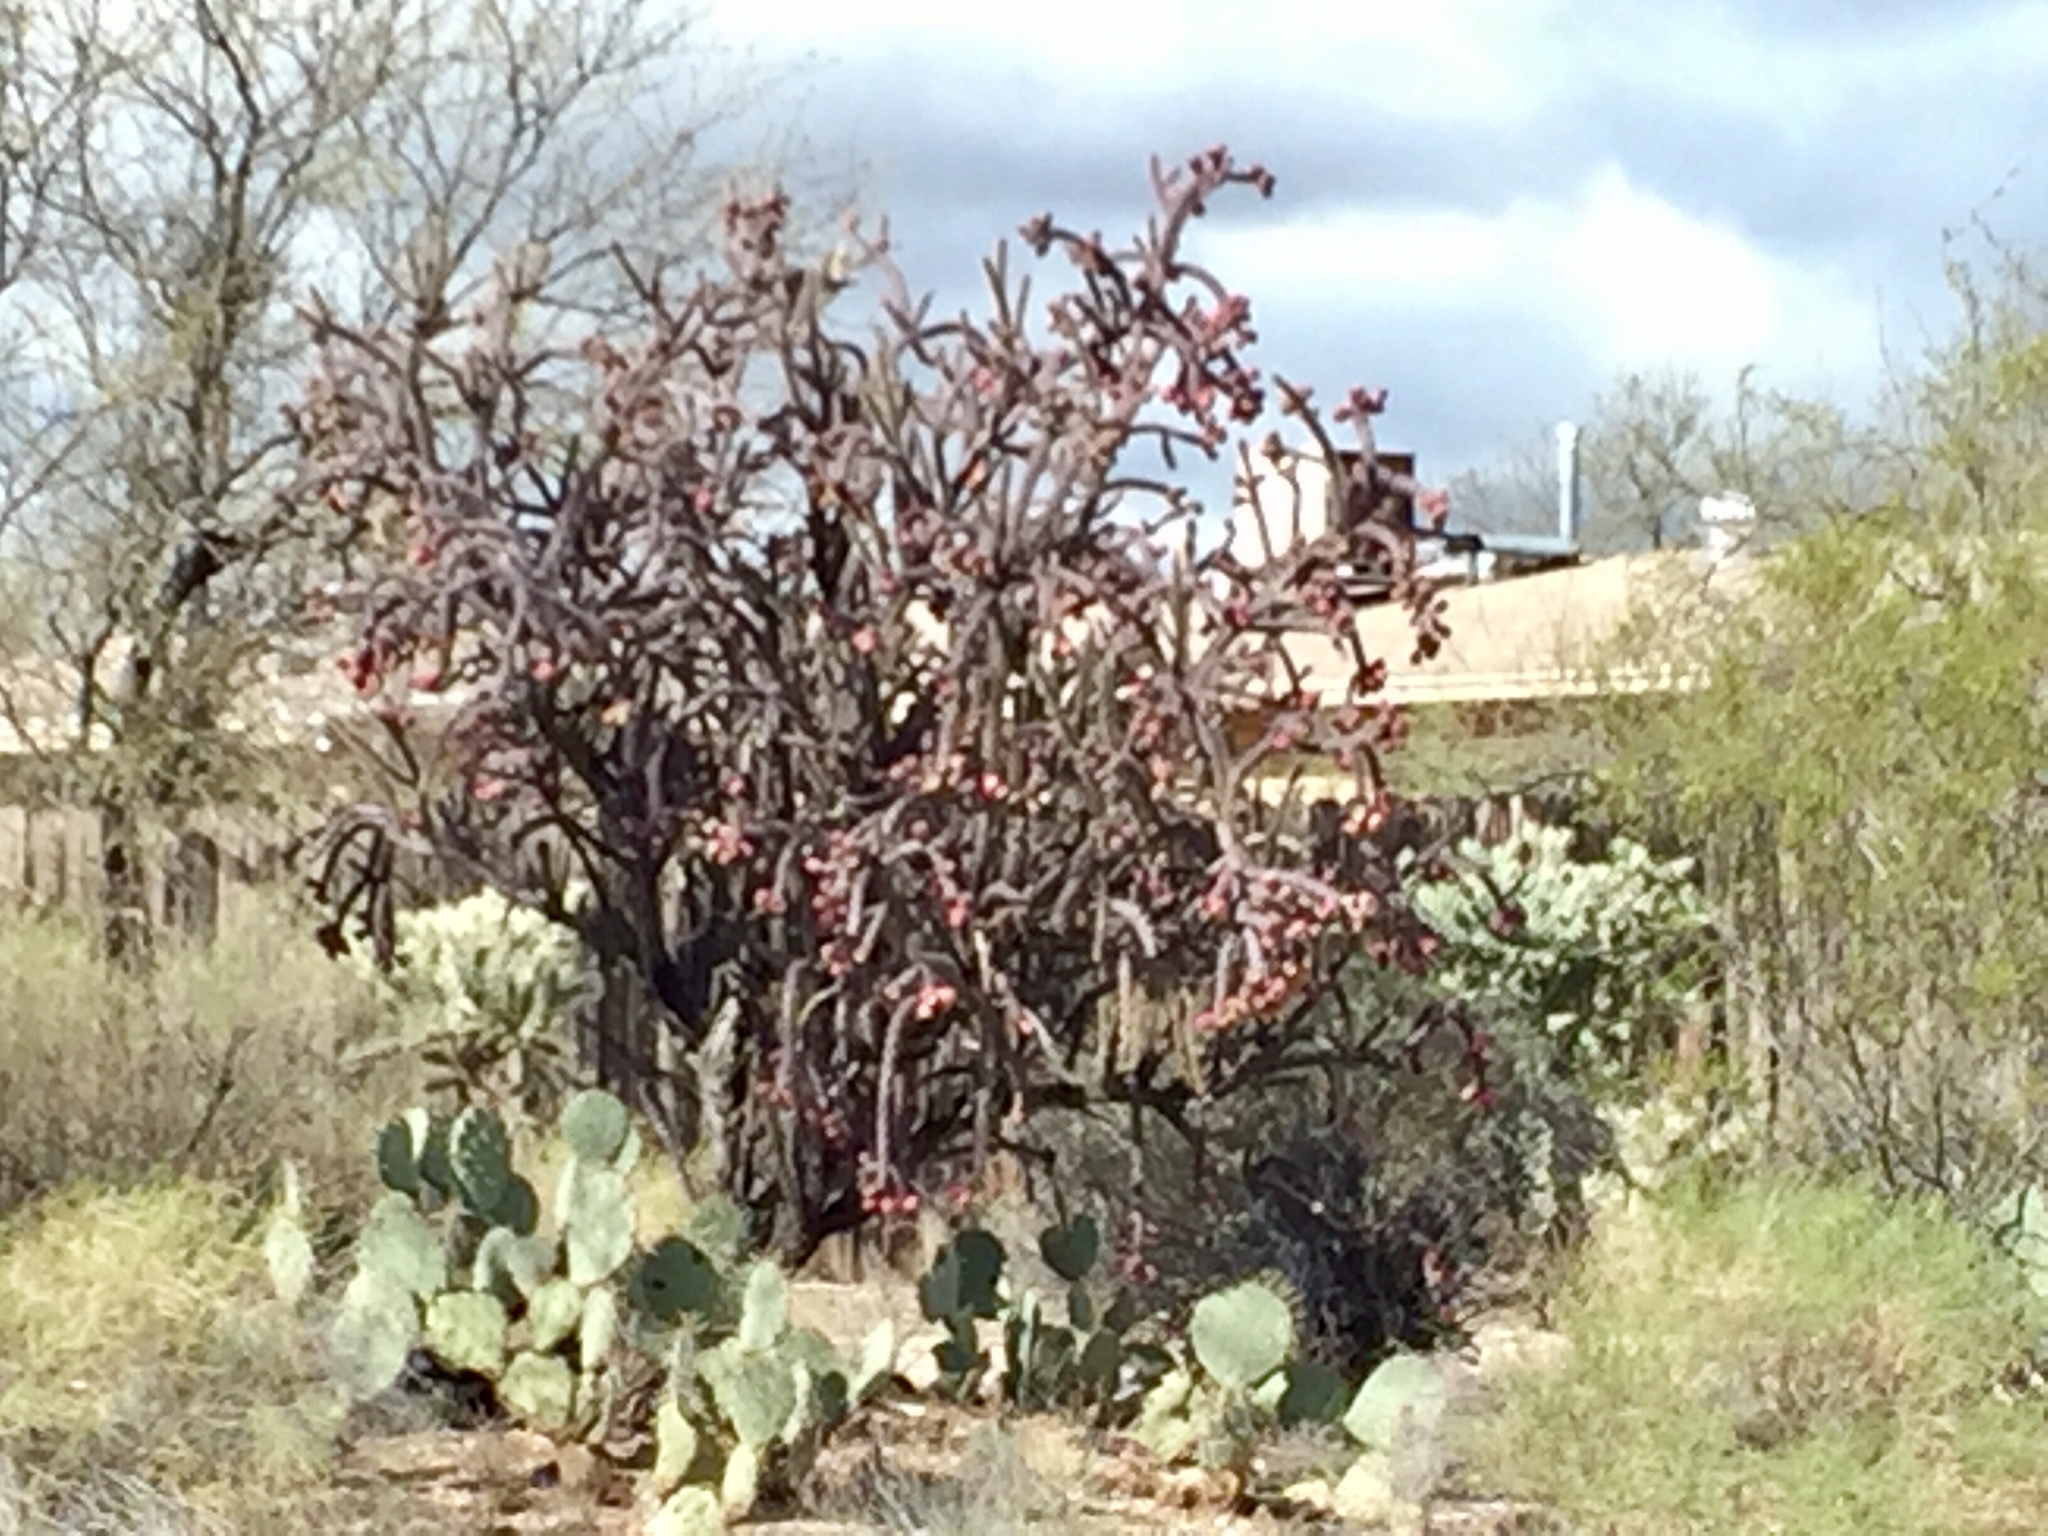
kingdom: Plantae
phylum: Tracheophyta
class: Magnoliopsida
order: Caryophyllales
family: Cactaceae
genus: Cylindropuntia
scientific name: Cylindropuntia thurberi
